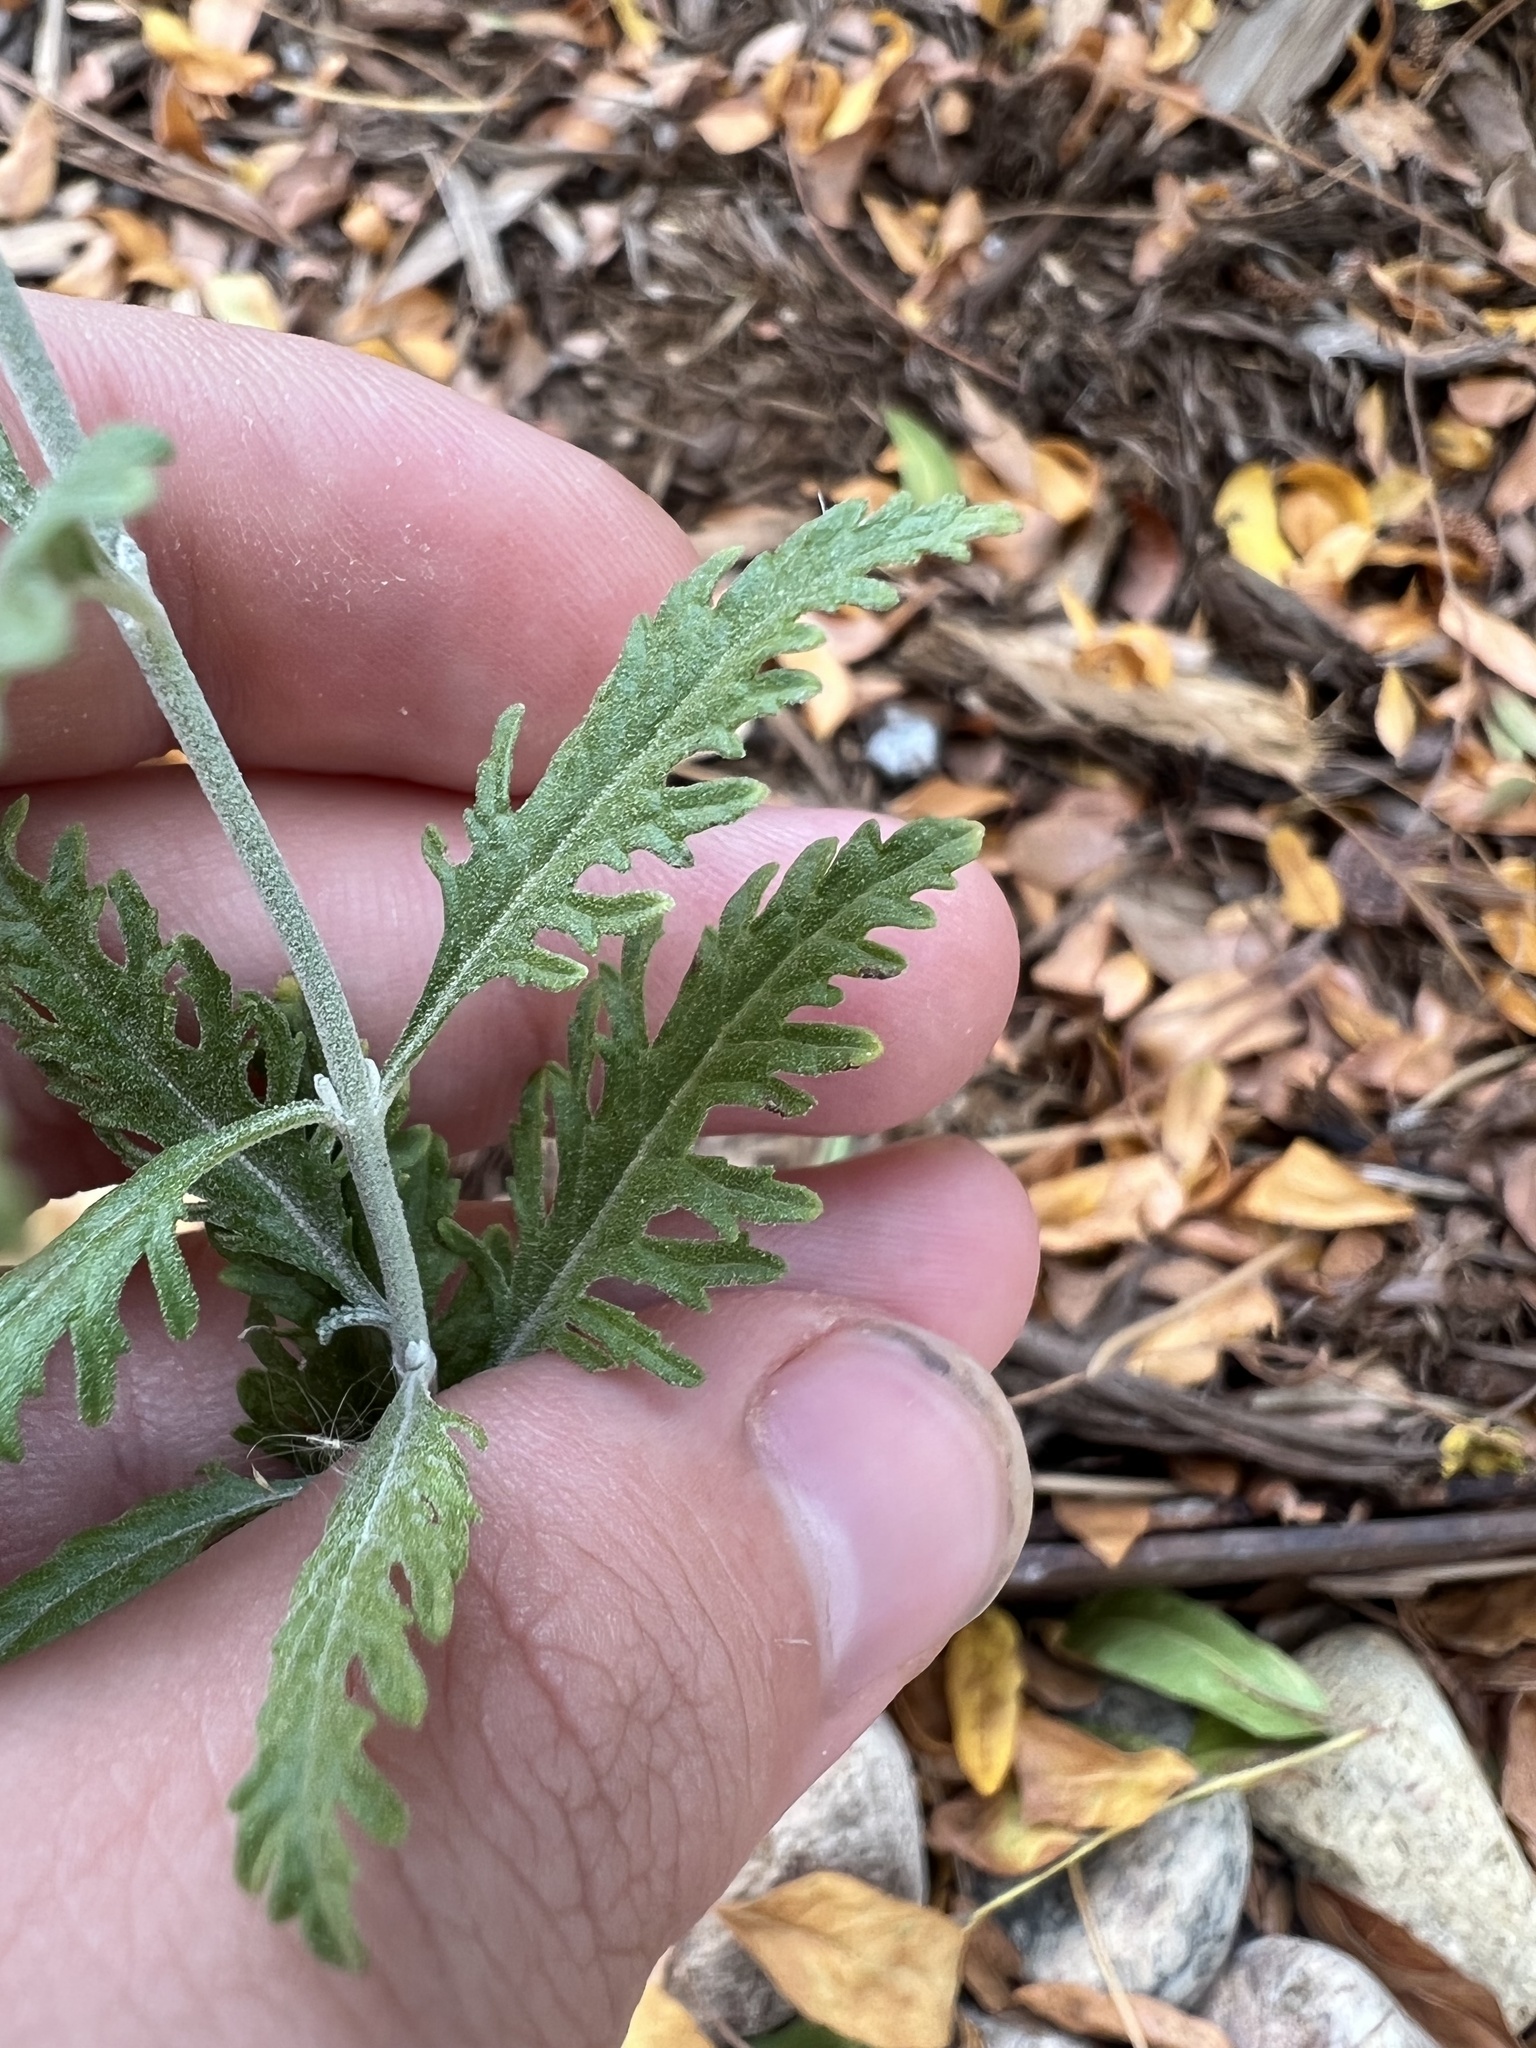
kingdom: Plantae
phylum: Tracheophyta
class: Magnoliopsida
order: Lamiales
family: Lamiaceae
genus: Salvia
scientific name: Salvia
